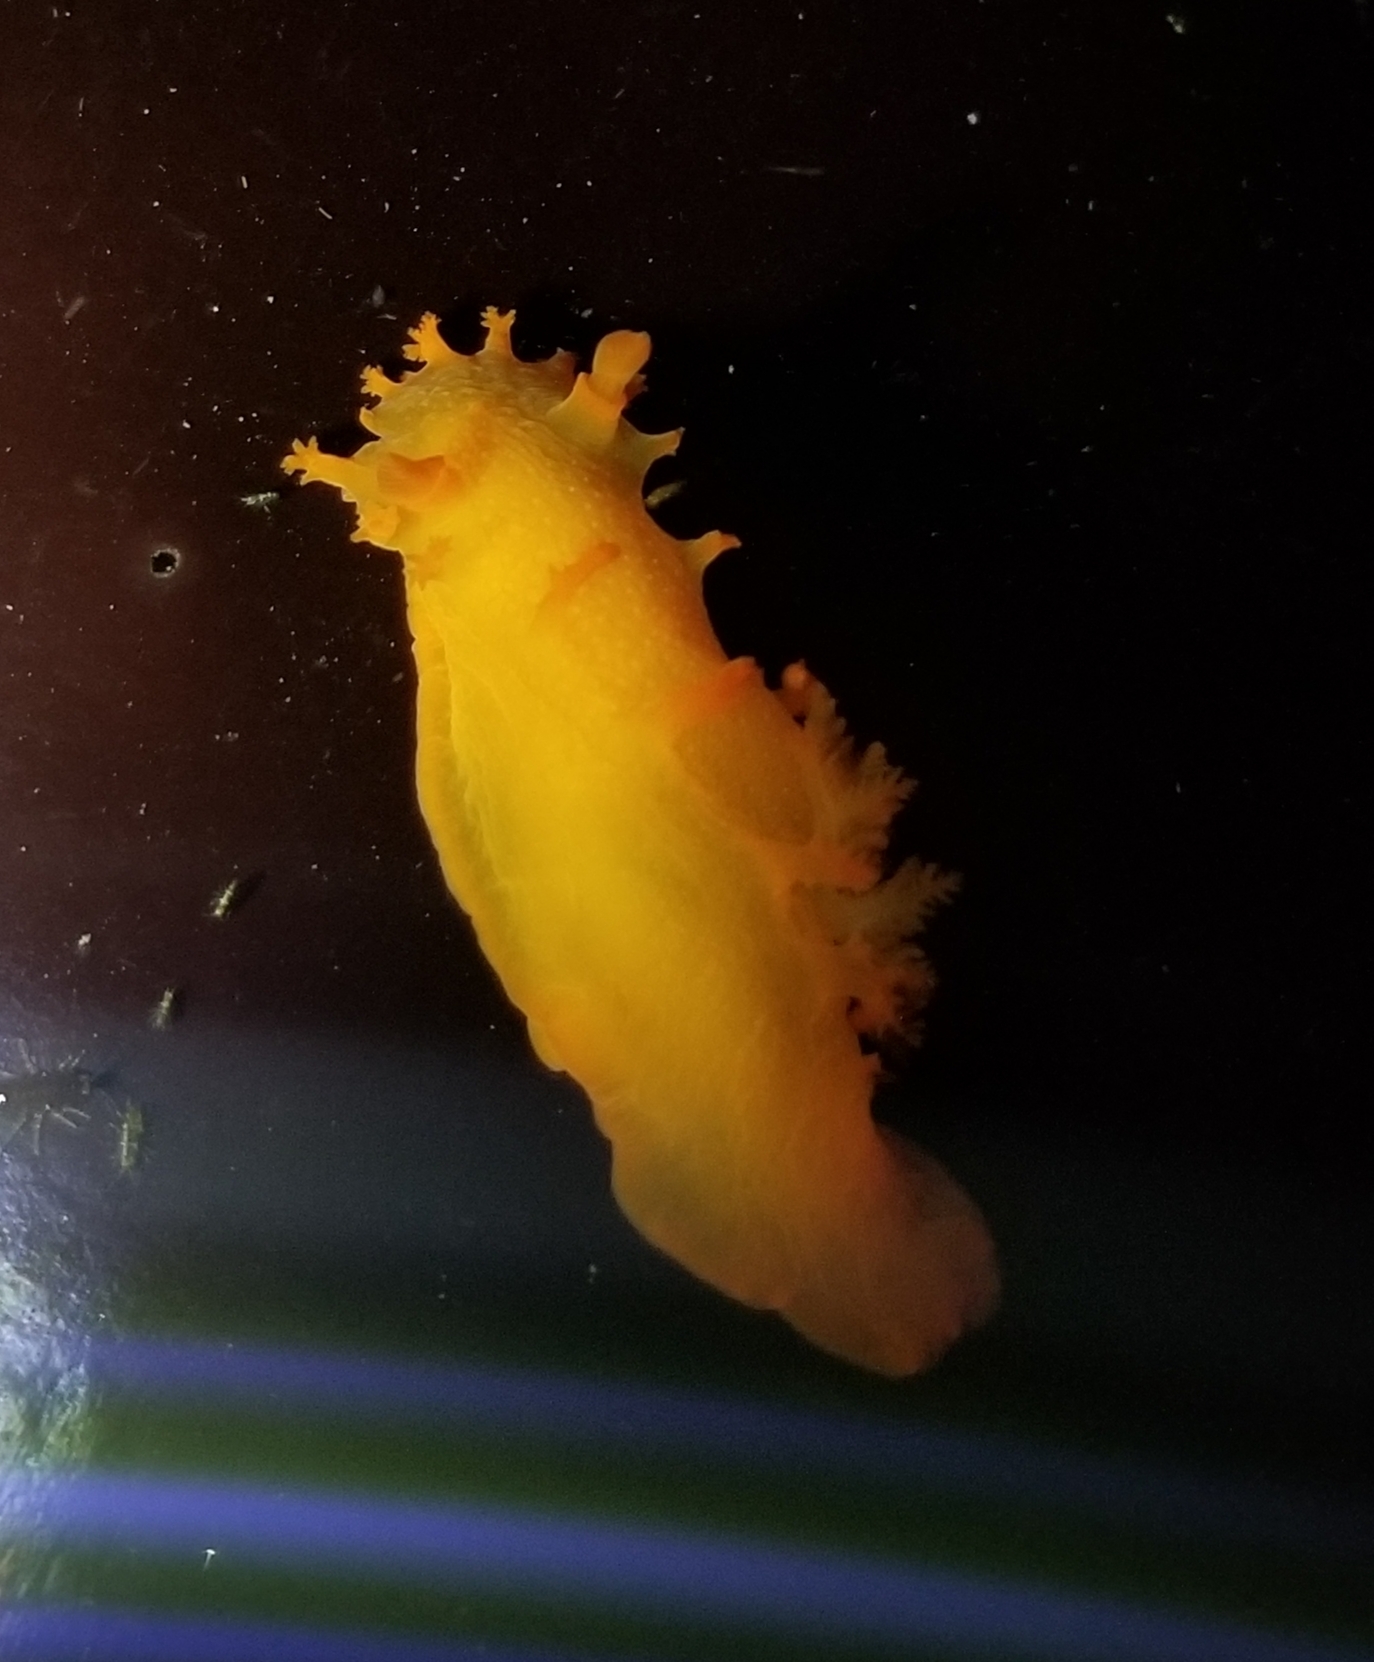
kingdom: Animalia
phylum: Mollusca
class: Gastropoda
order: Nudibranchia
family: Polyceridae
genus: Triopha
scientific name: Triopha maculata
